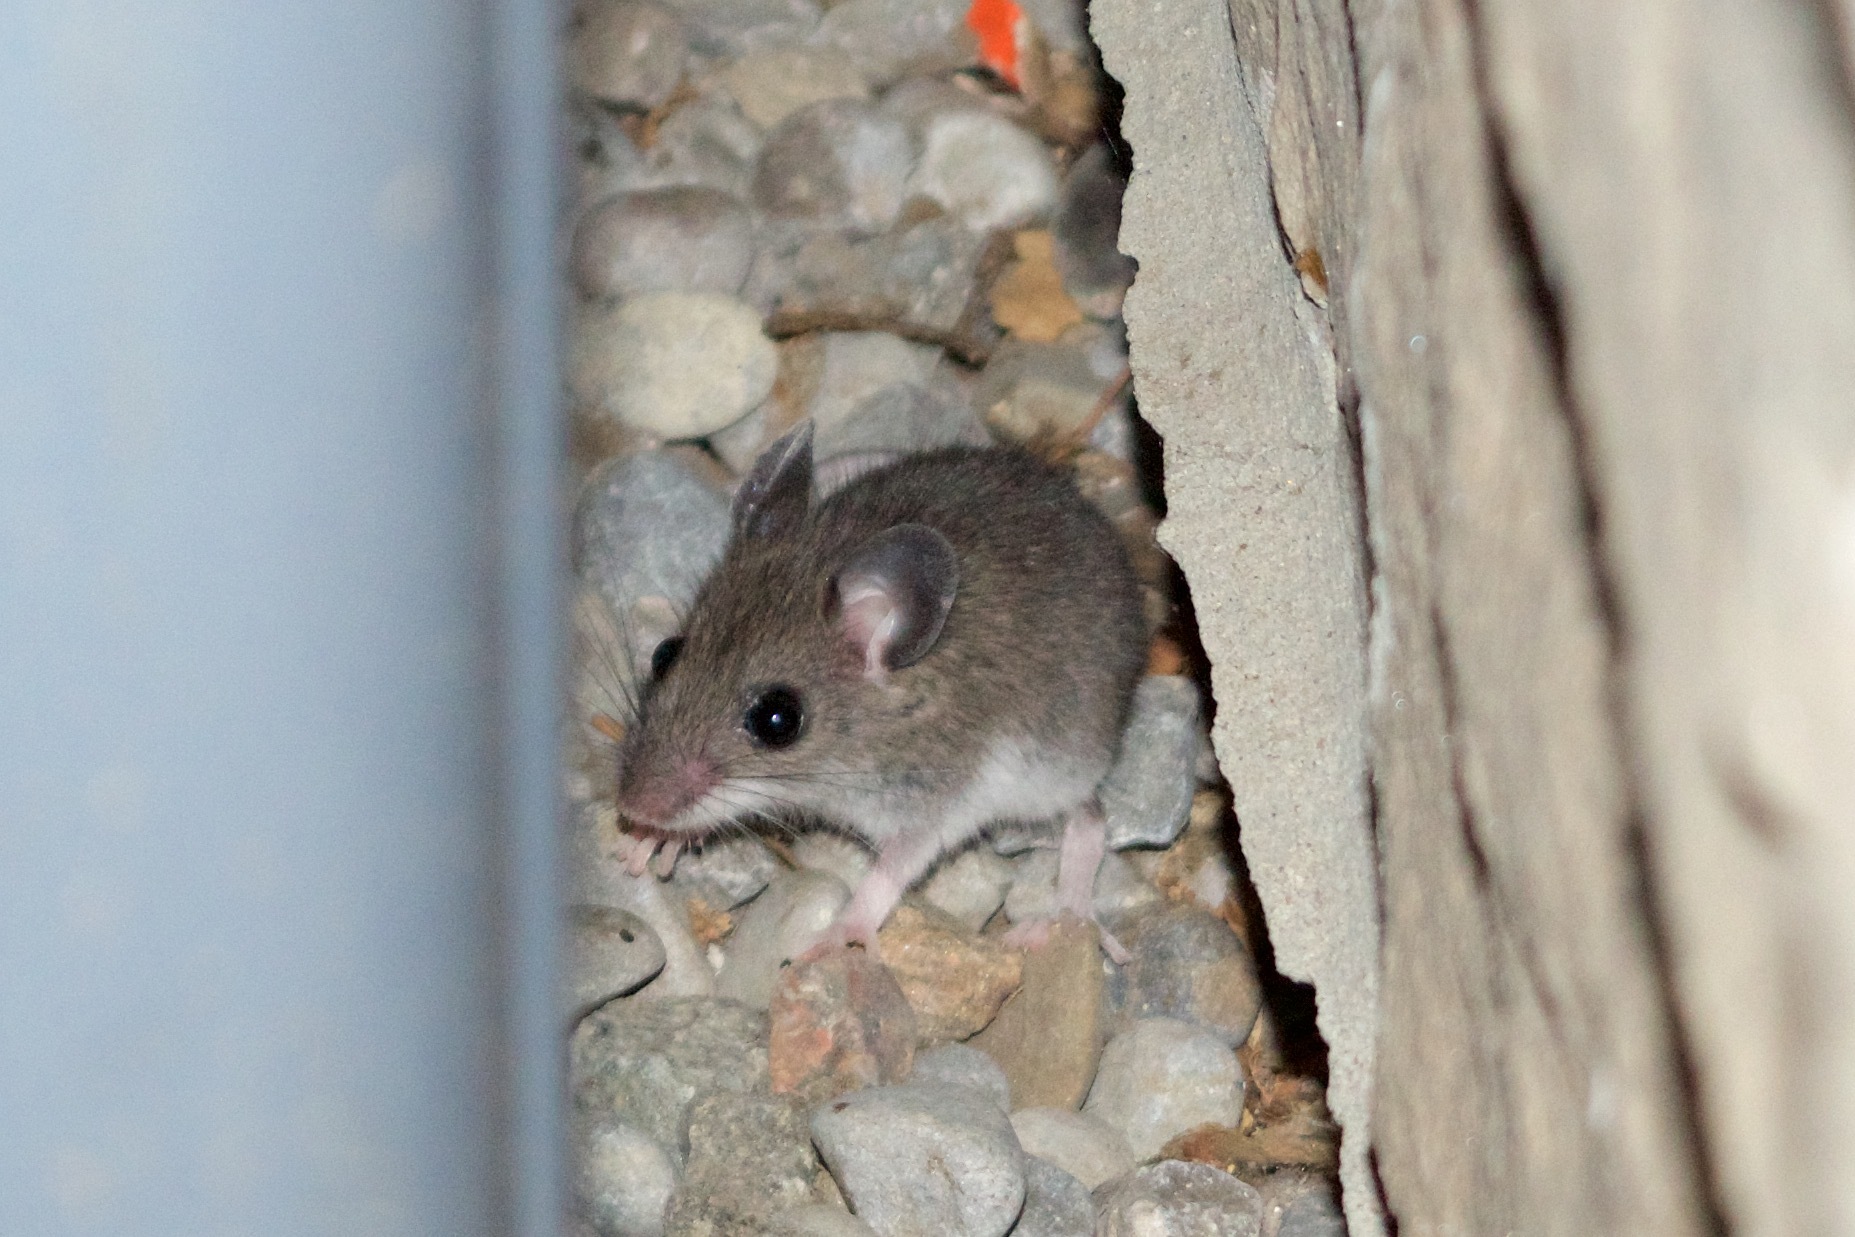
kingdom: Animalia
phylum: Chordata
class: Mammalia
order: Rodentia
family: Cricetidae
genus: Peromyscus
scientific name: Peromyscus
